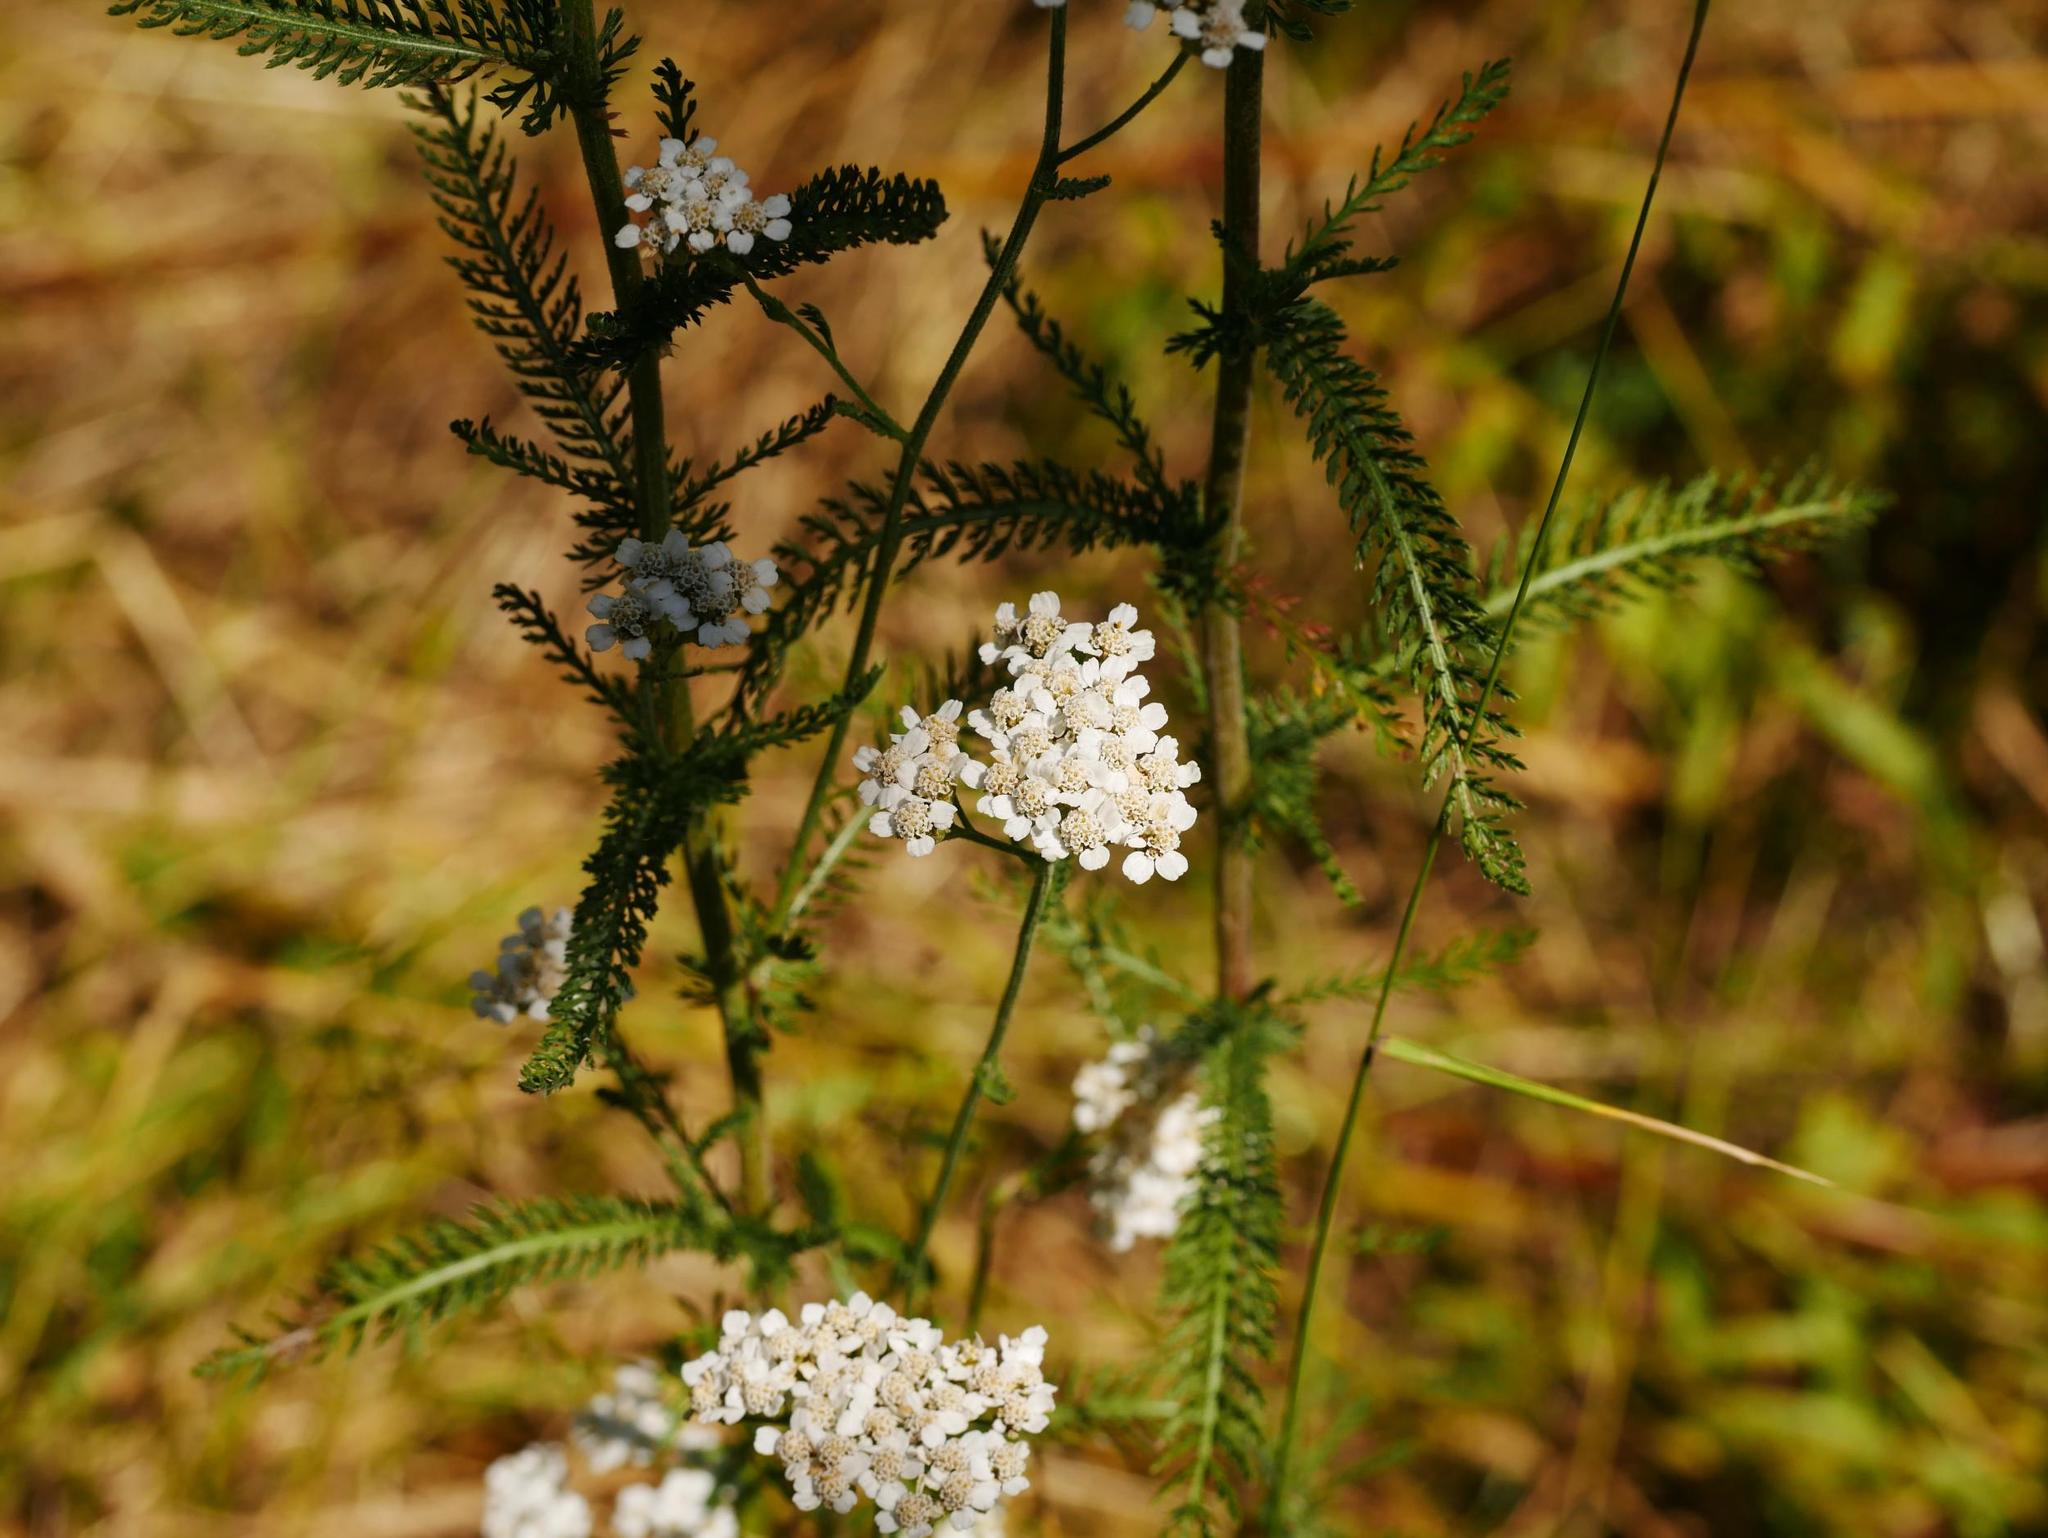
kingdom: Plantae
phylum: Tracheophyta
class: Magnoliopsida
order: Asterales
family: Asteraceae
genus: Achillea
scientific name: Achillea millefolium
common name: Yarrow
